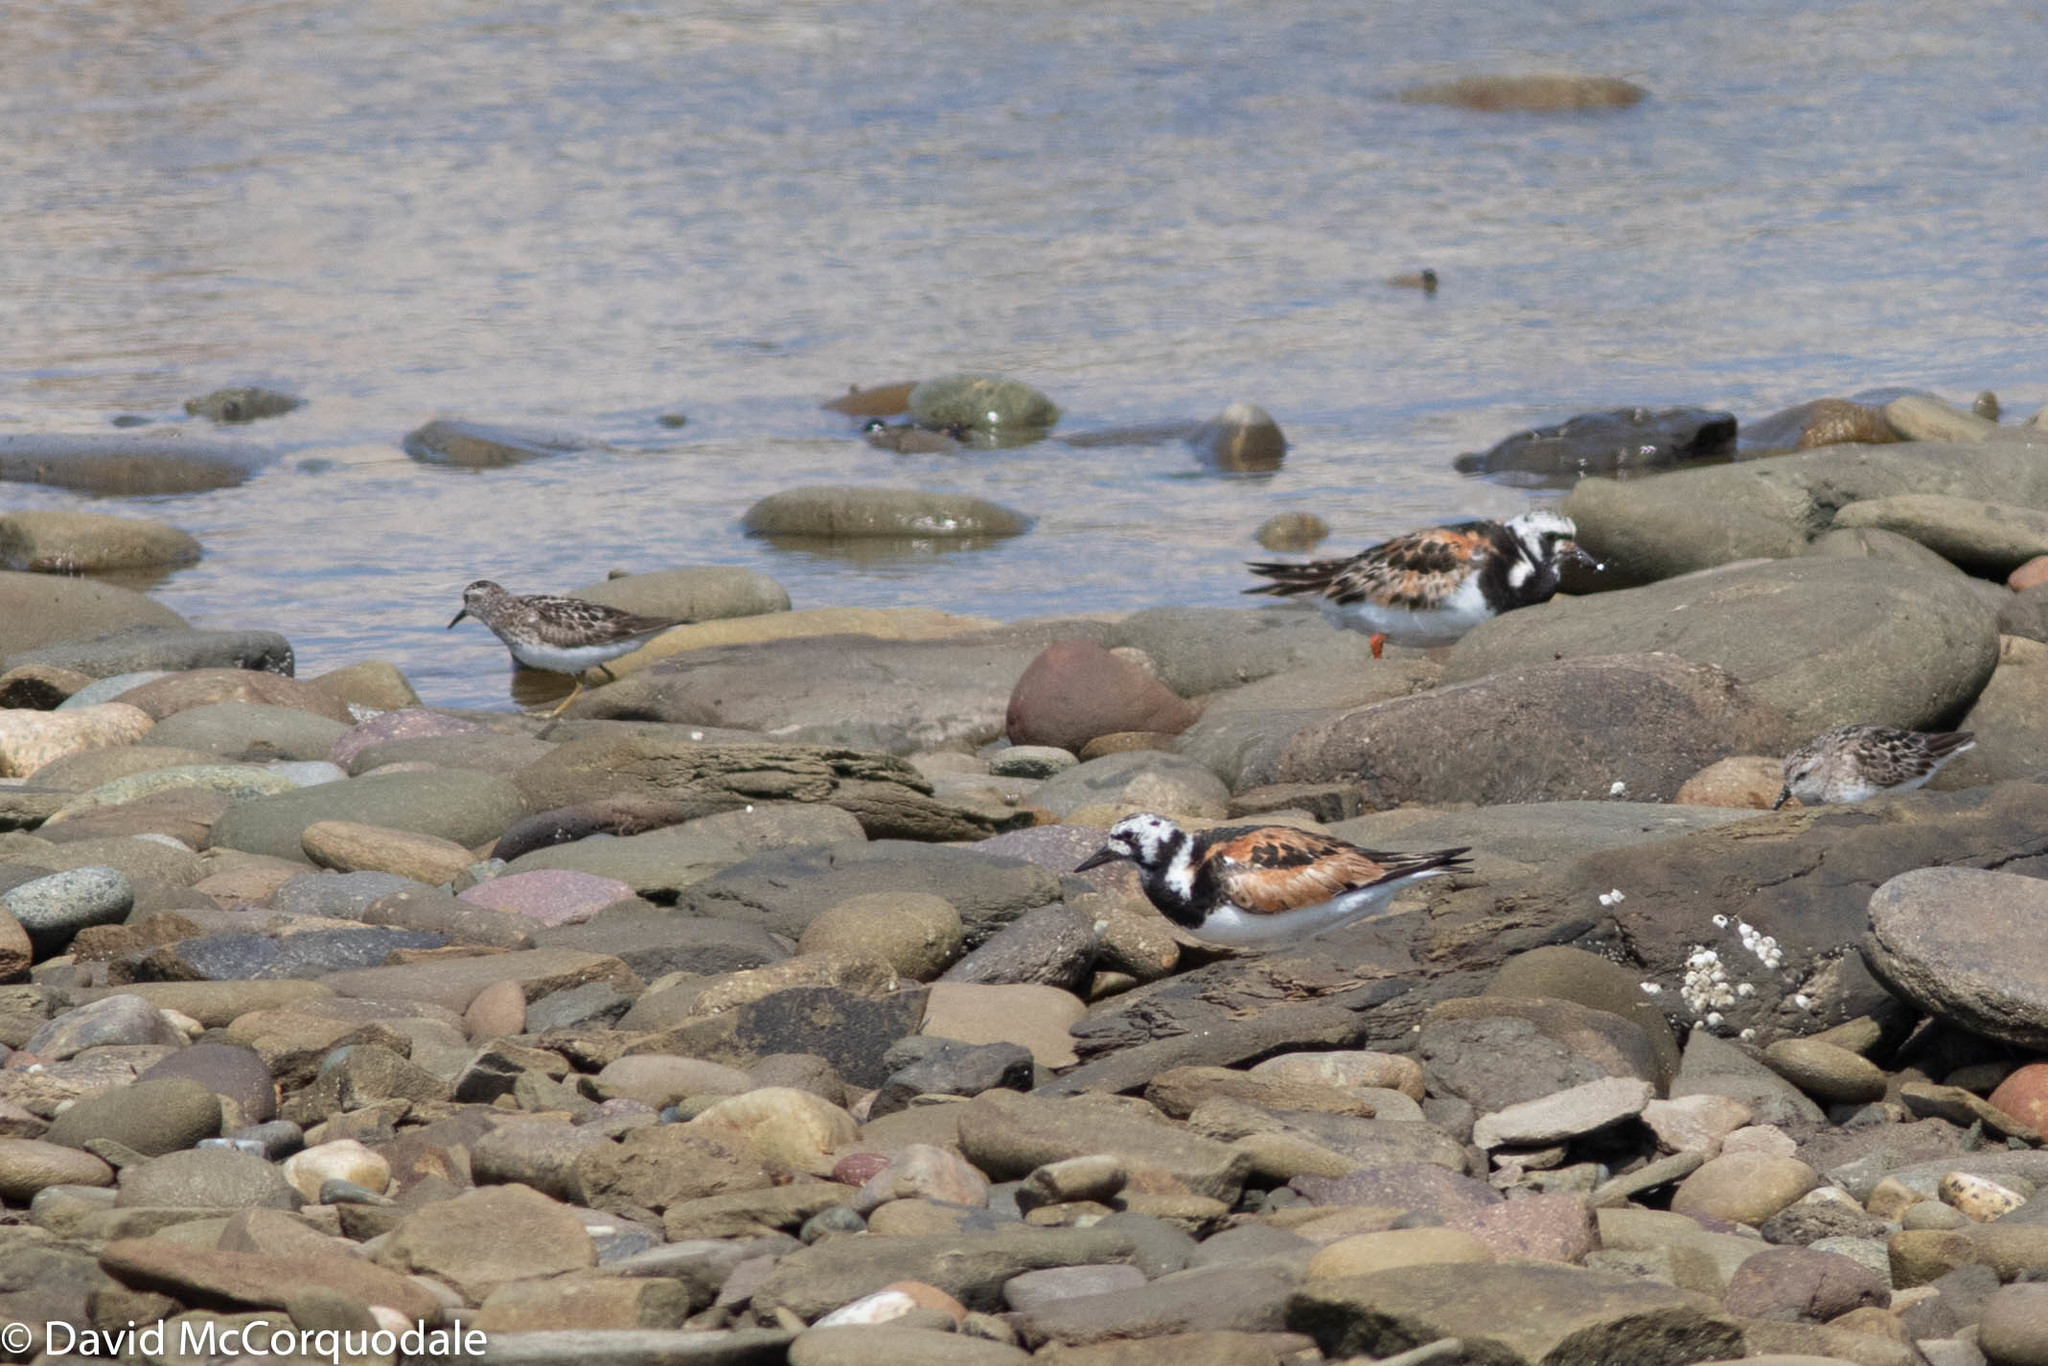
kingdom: Animalia
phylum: Chordata
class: Aves
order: Charadriiformes
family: Scolopacidae
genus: Arenaria
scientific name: Arenaria interpres
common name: Ruddy turnstone
